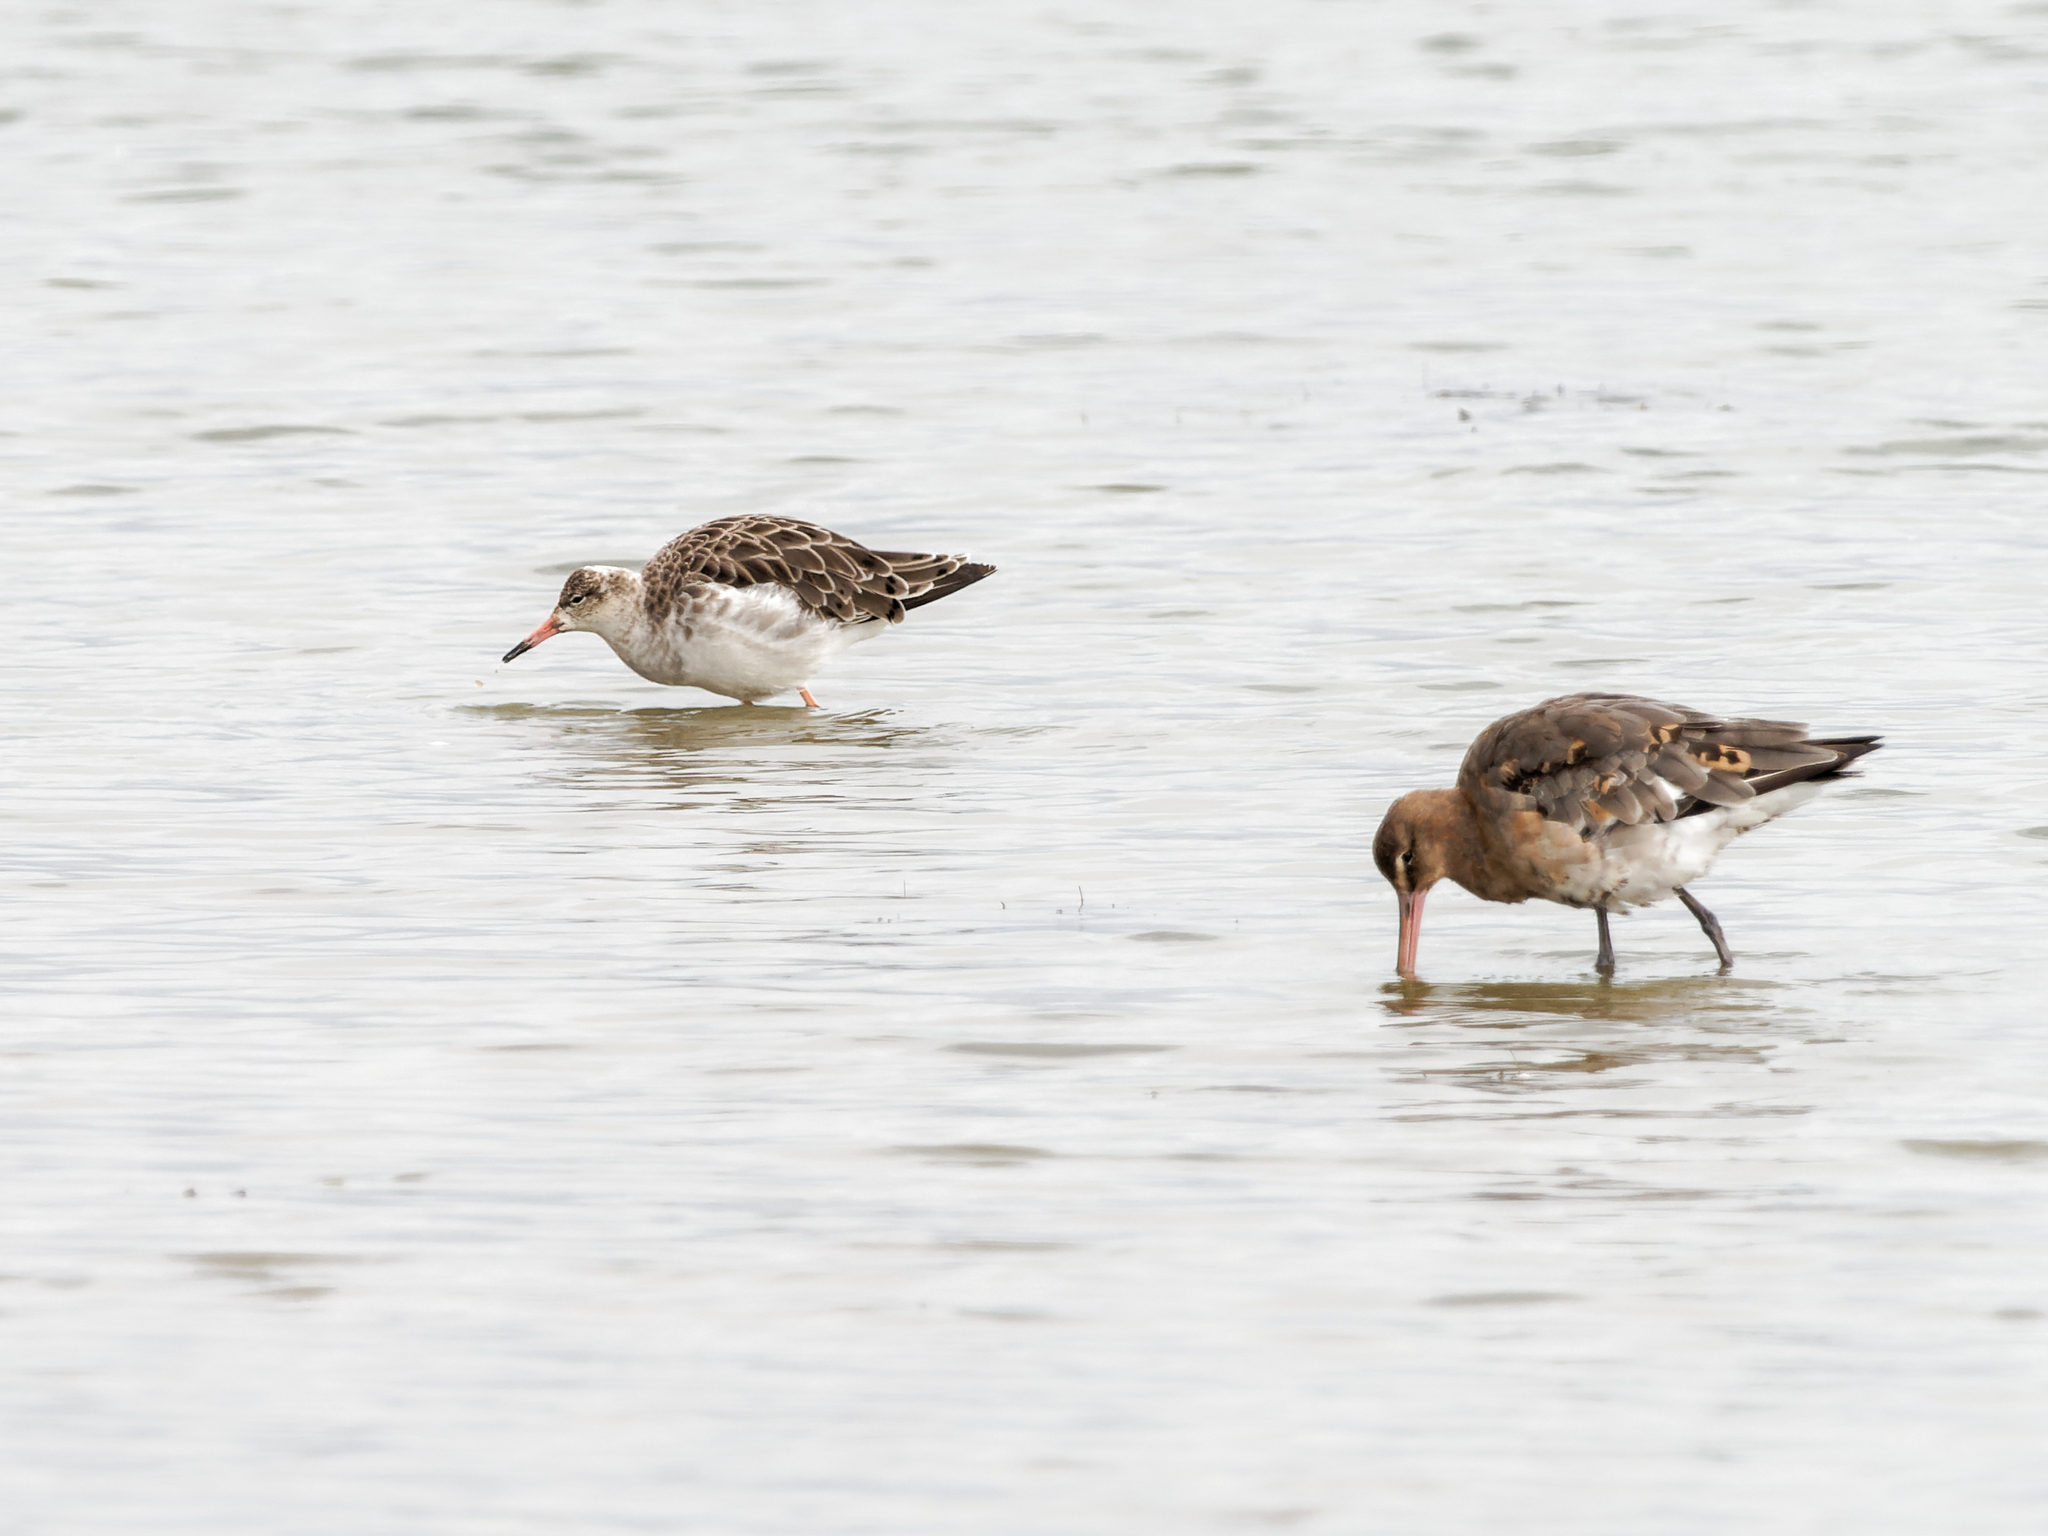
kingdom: Animalia
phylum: Chordata
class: Aves
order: Charadriiformes
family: Scolopacidae
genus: Calidris
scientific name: Calidris pugnax
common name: Ruff
